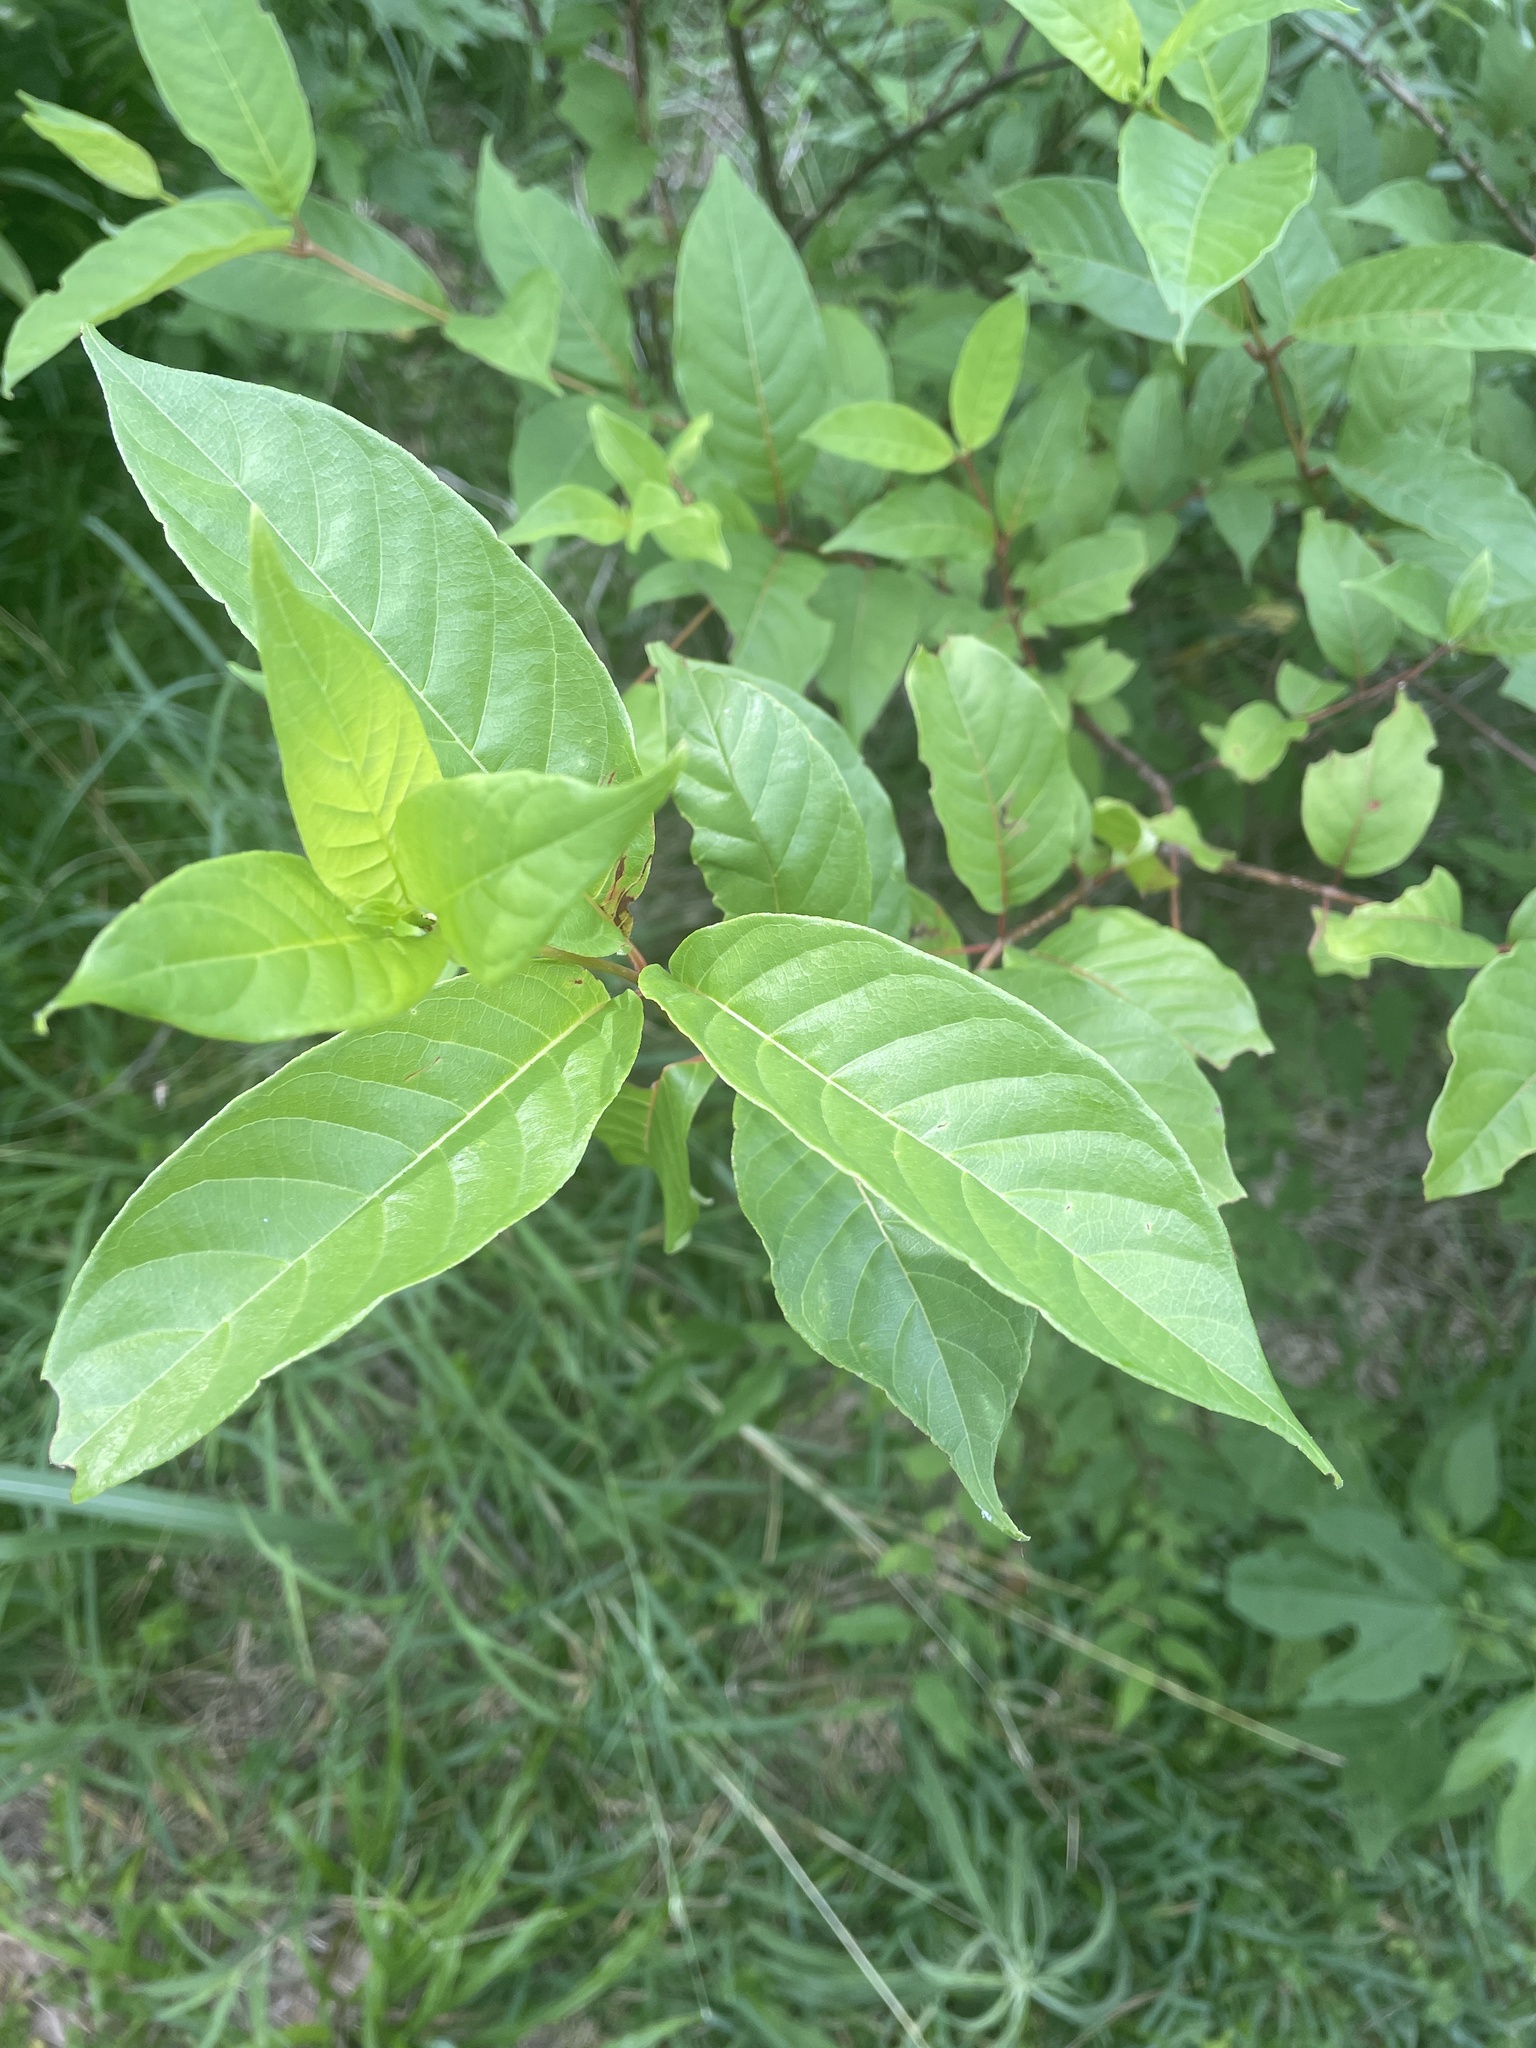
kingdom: Plantae
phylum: Tracheophyta
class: Magnoliopsida
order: Gentianales
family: Rubiaceae
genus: Cephalanthus
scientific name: Cephalanthus occidentalis
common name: Button-willow
